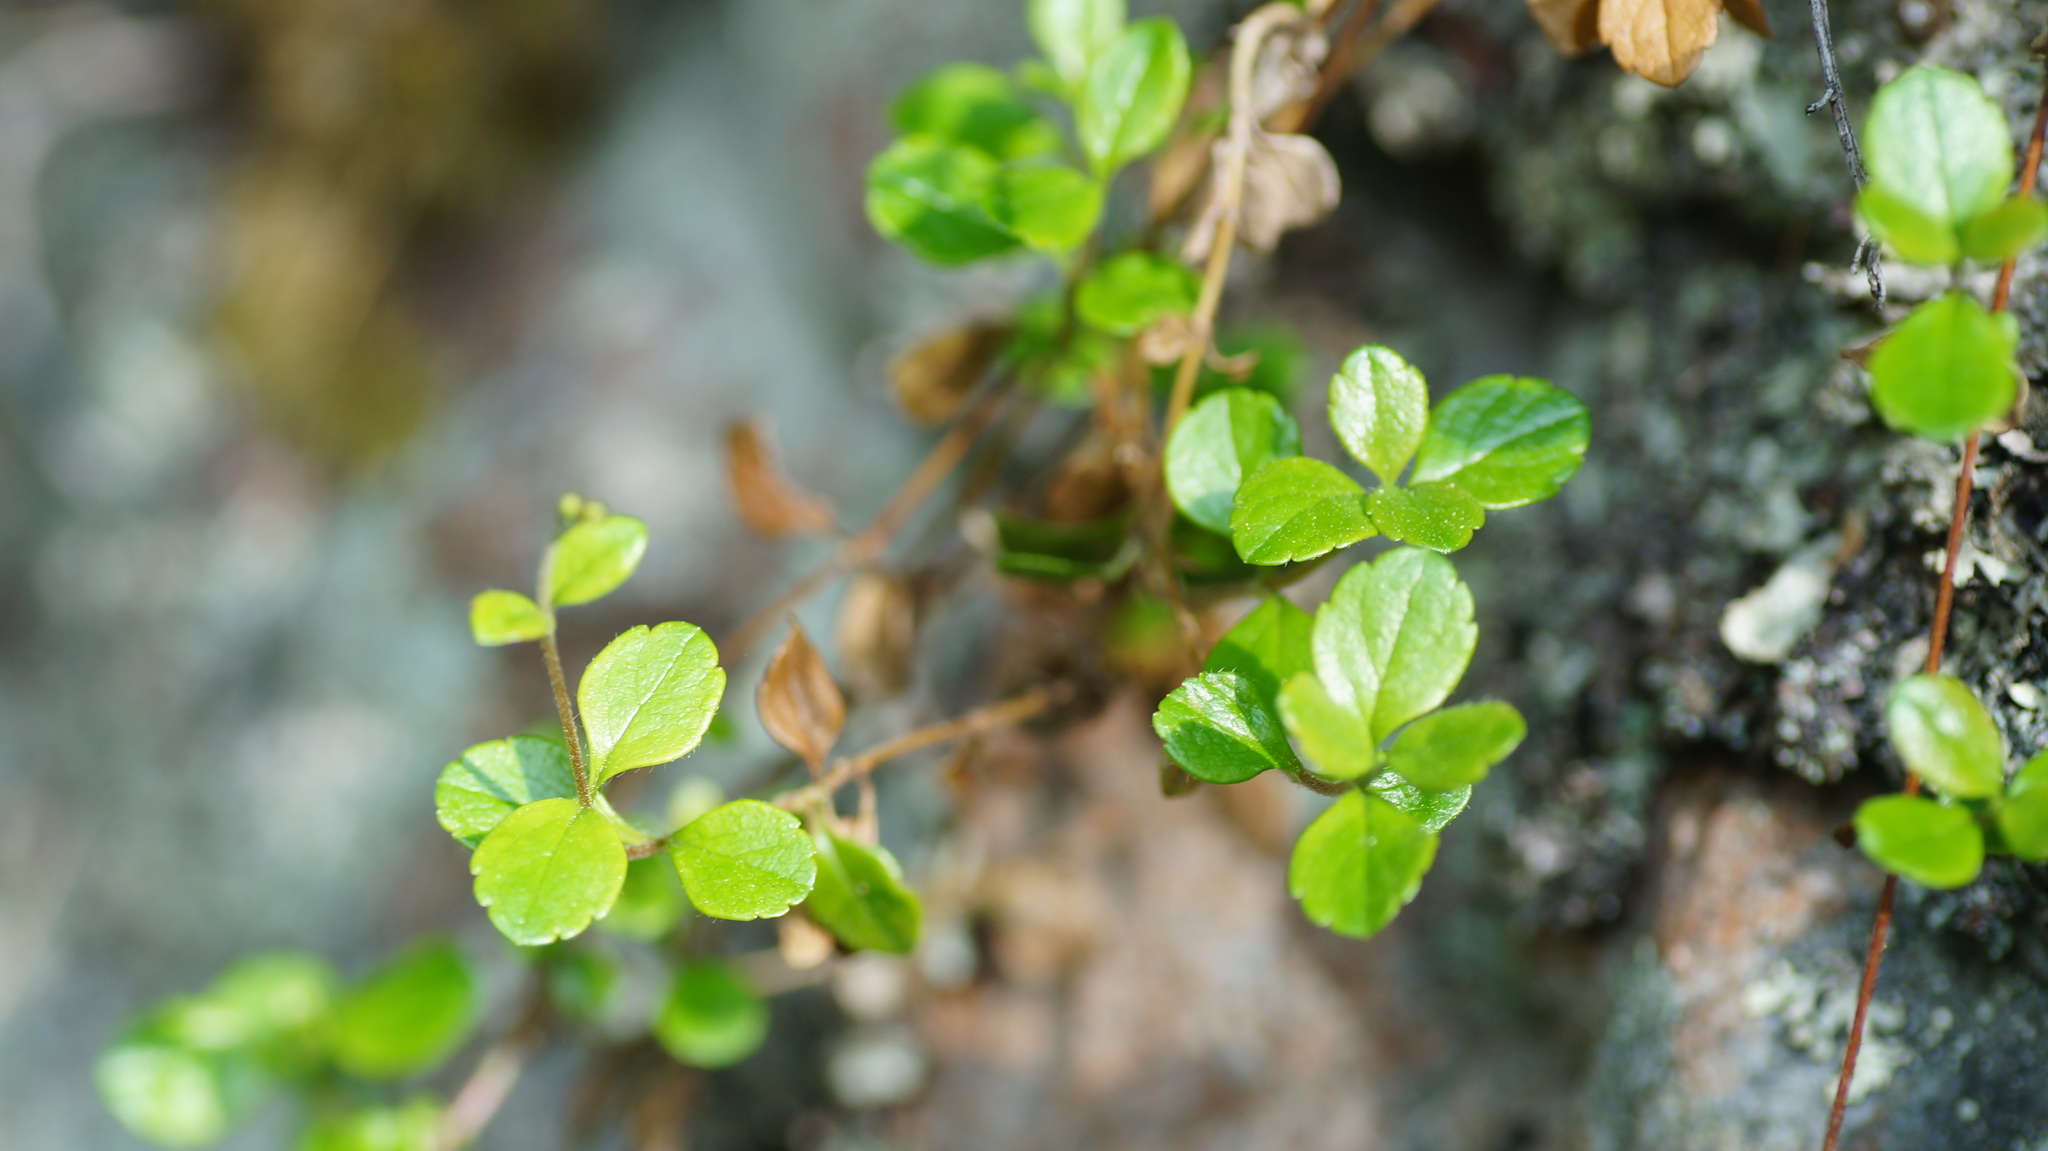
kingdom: Plantae
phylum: Tracheophyta
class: Magnoliopsida
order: Dipsacales
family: Caprifoliaceae
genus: Linnaea
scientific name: Linnaea borealis
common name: Twinflower
